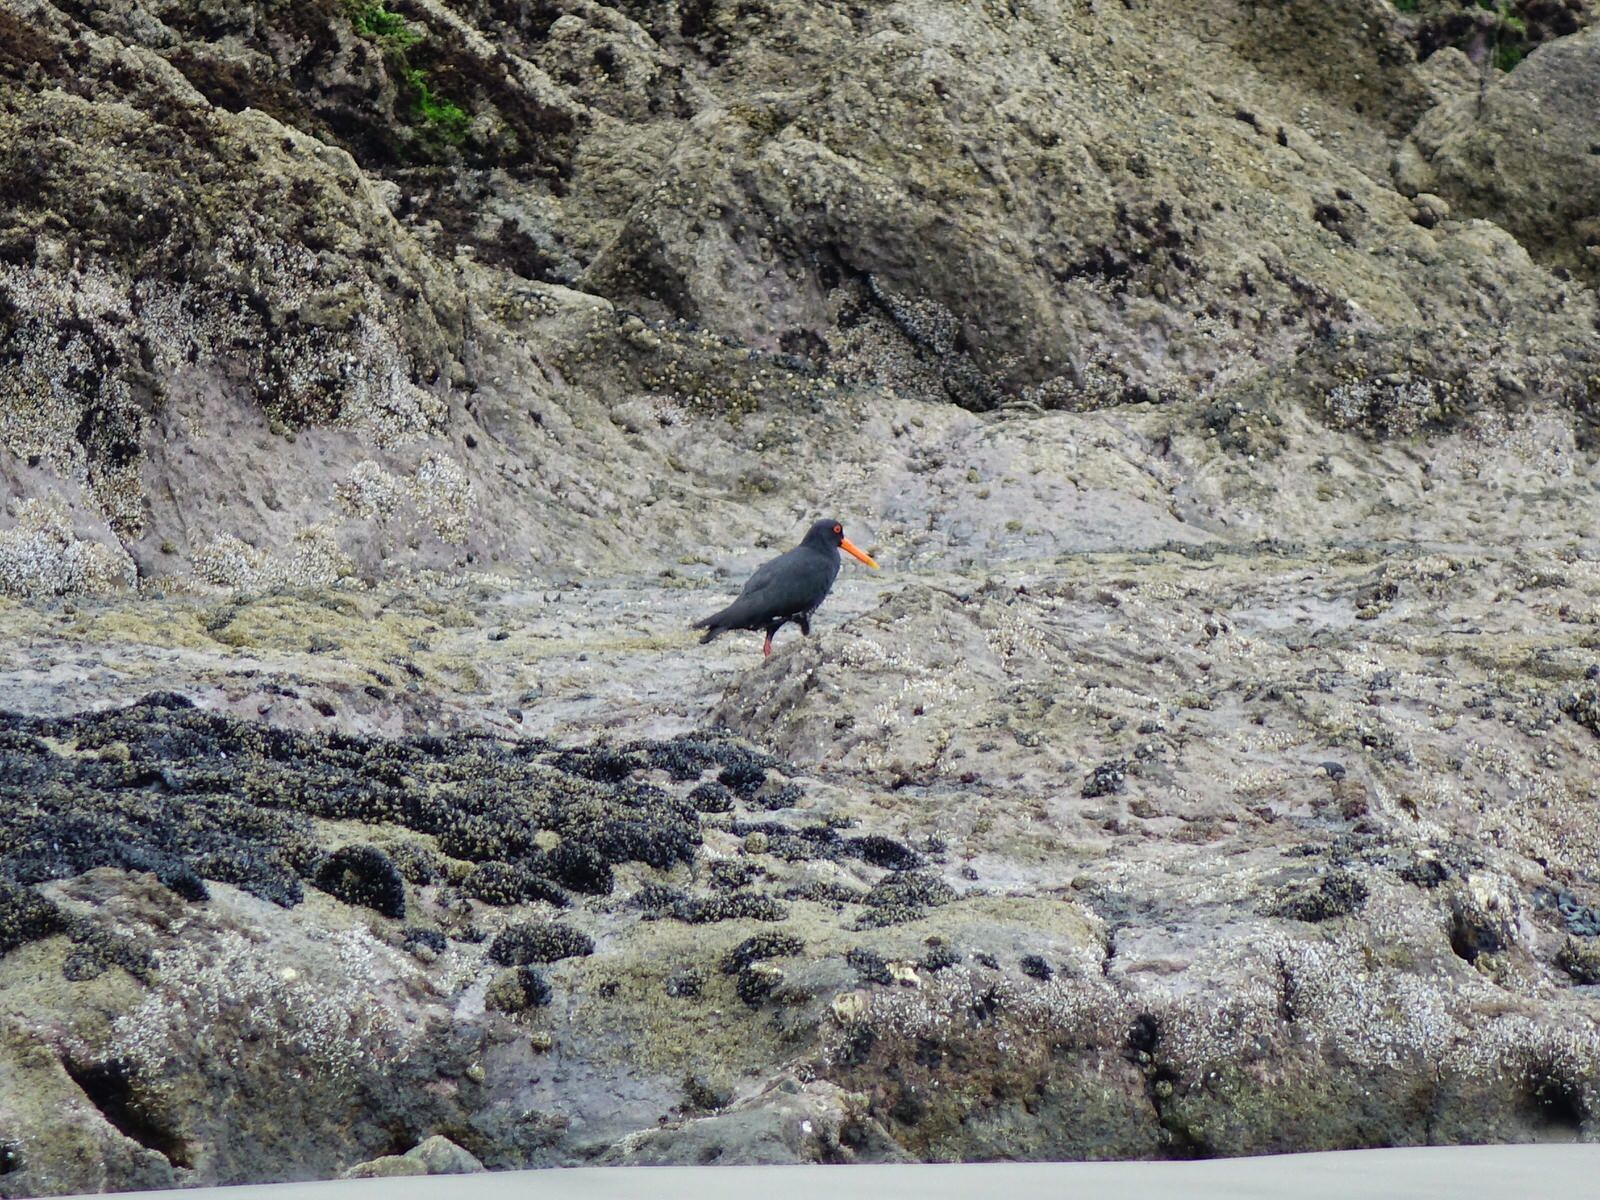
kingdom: Animalia
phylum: Chordata
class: Aves
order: Charadriiformes
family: Haematopodidae
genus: Haematopus
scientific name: Haematopus unicolor
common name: Variable oystercatcher
